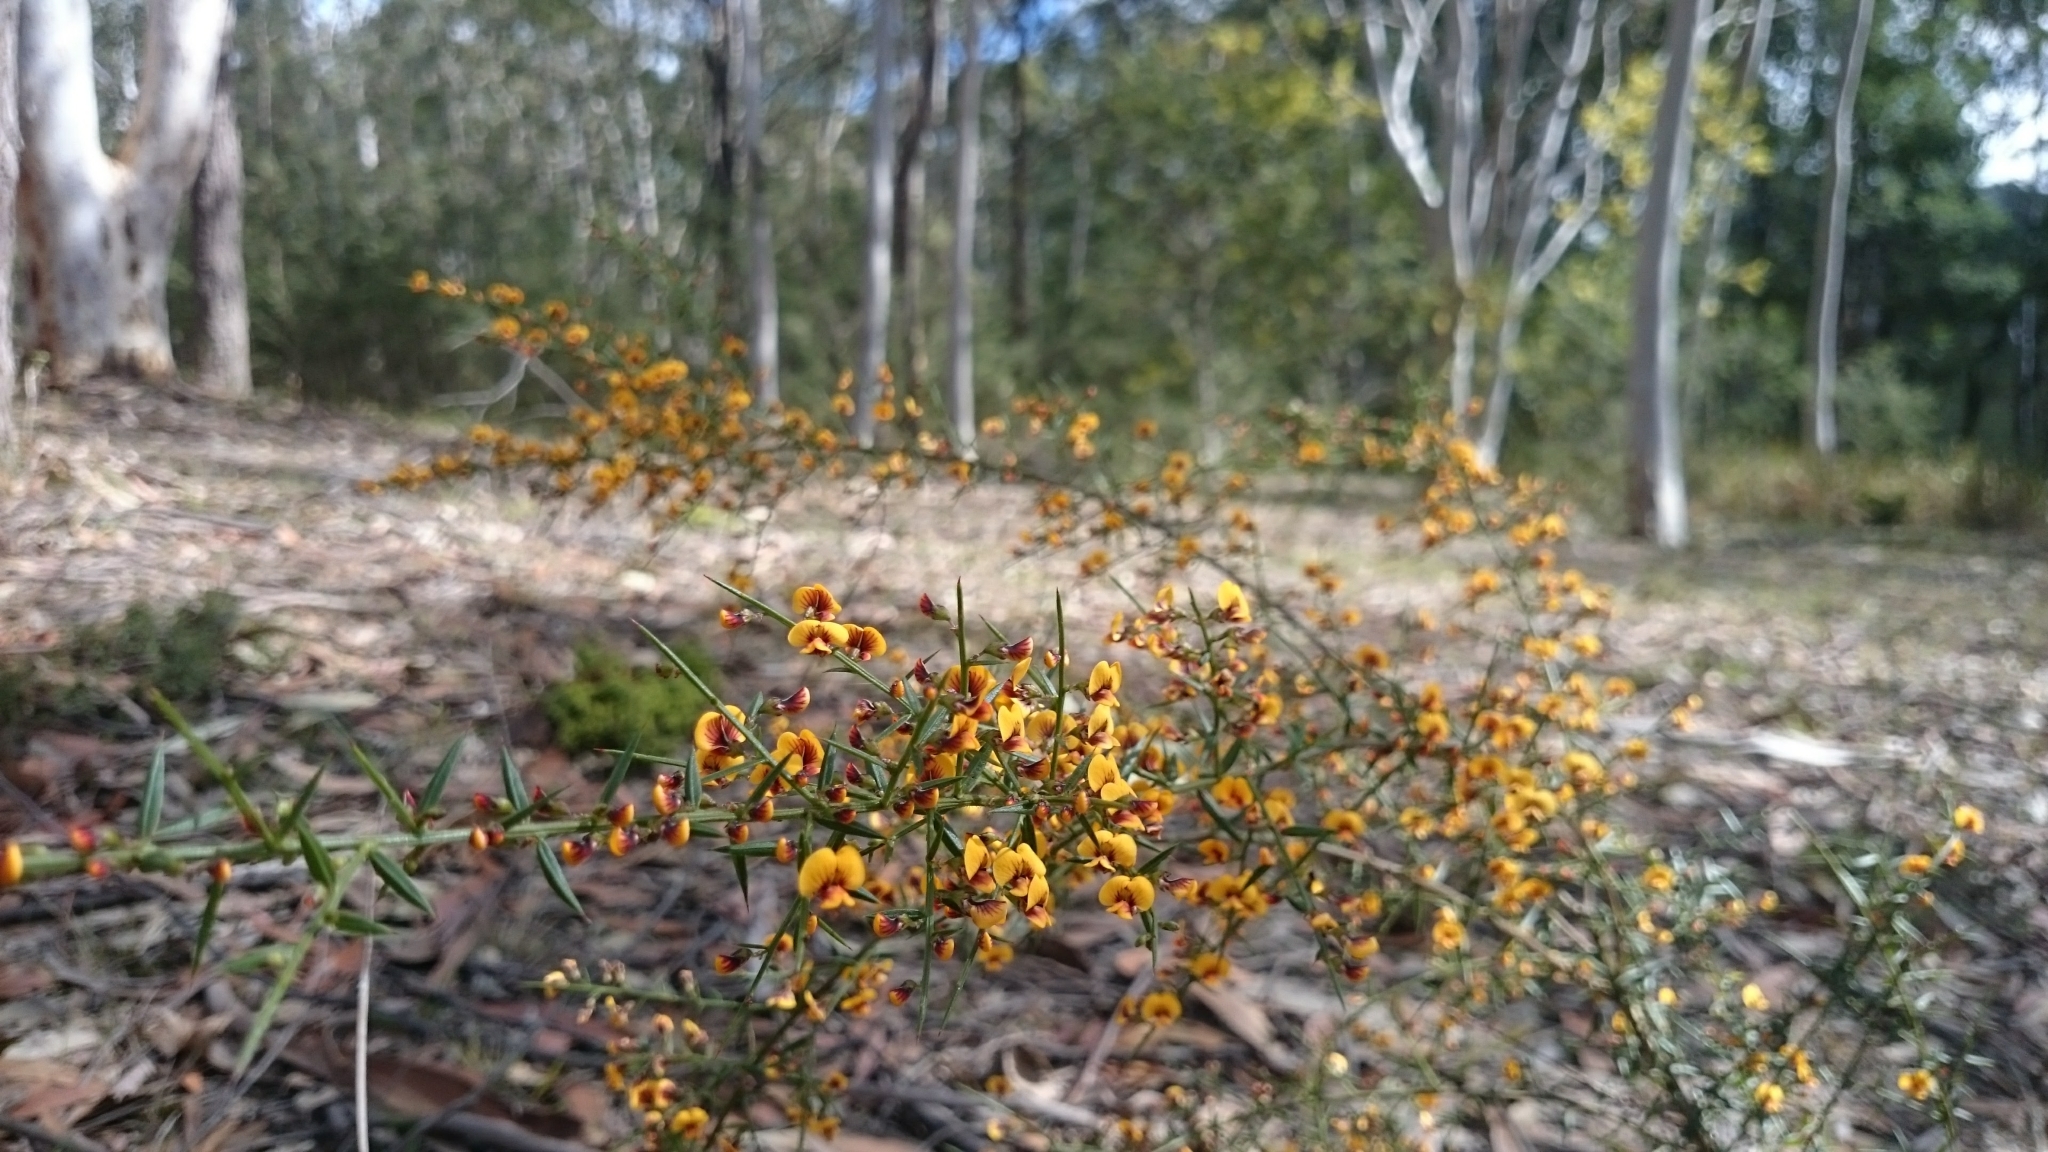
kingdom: Plantae
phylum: Tracheophyta
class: Magnoliopsida
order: Fabales
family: Fabaceae
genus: Daviesia
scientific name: Daviesia ulicifolia
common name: Gorse bitter-pea
